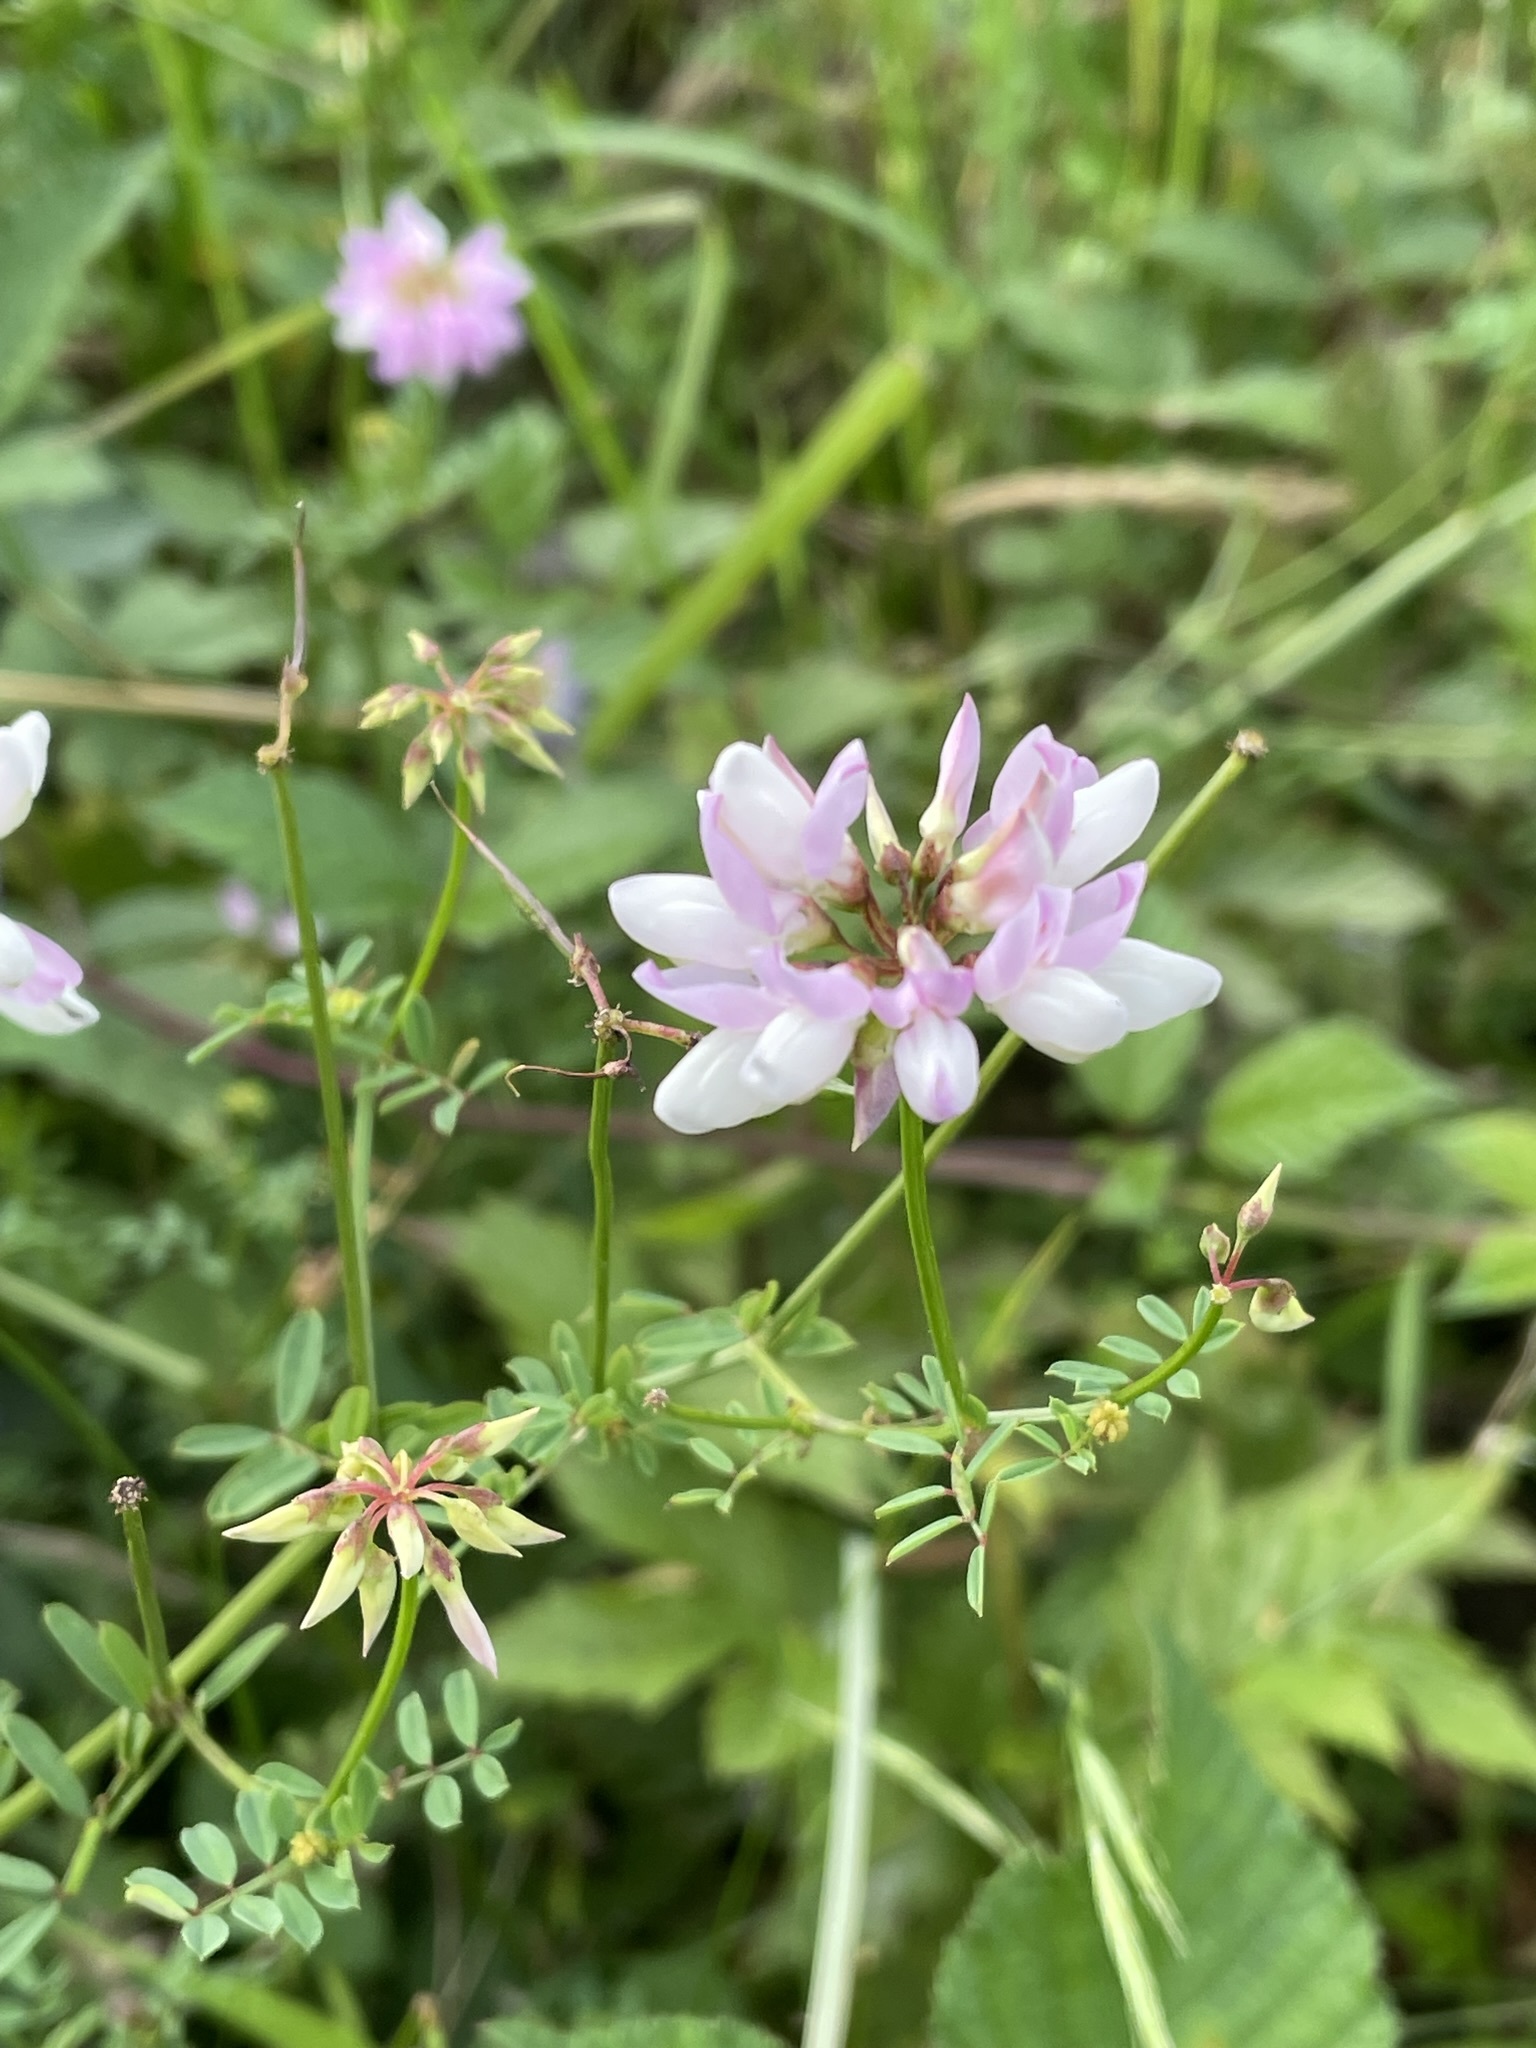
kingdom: Plantae
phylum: Tracheophyta
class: Magnoliopsida
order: Fabales
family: Fabaceae
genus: Coronilla
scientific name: Coronilla varia
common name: Crownvetch
